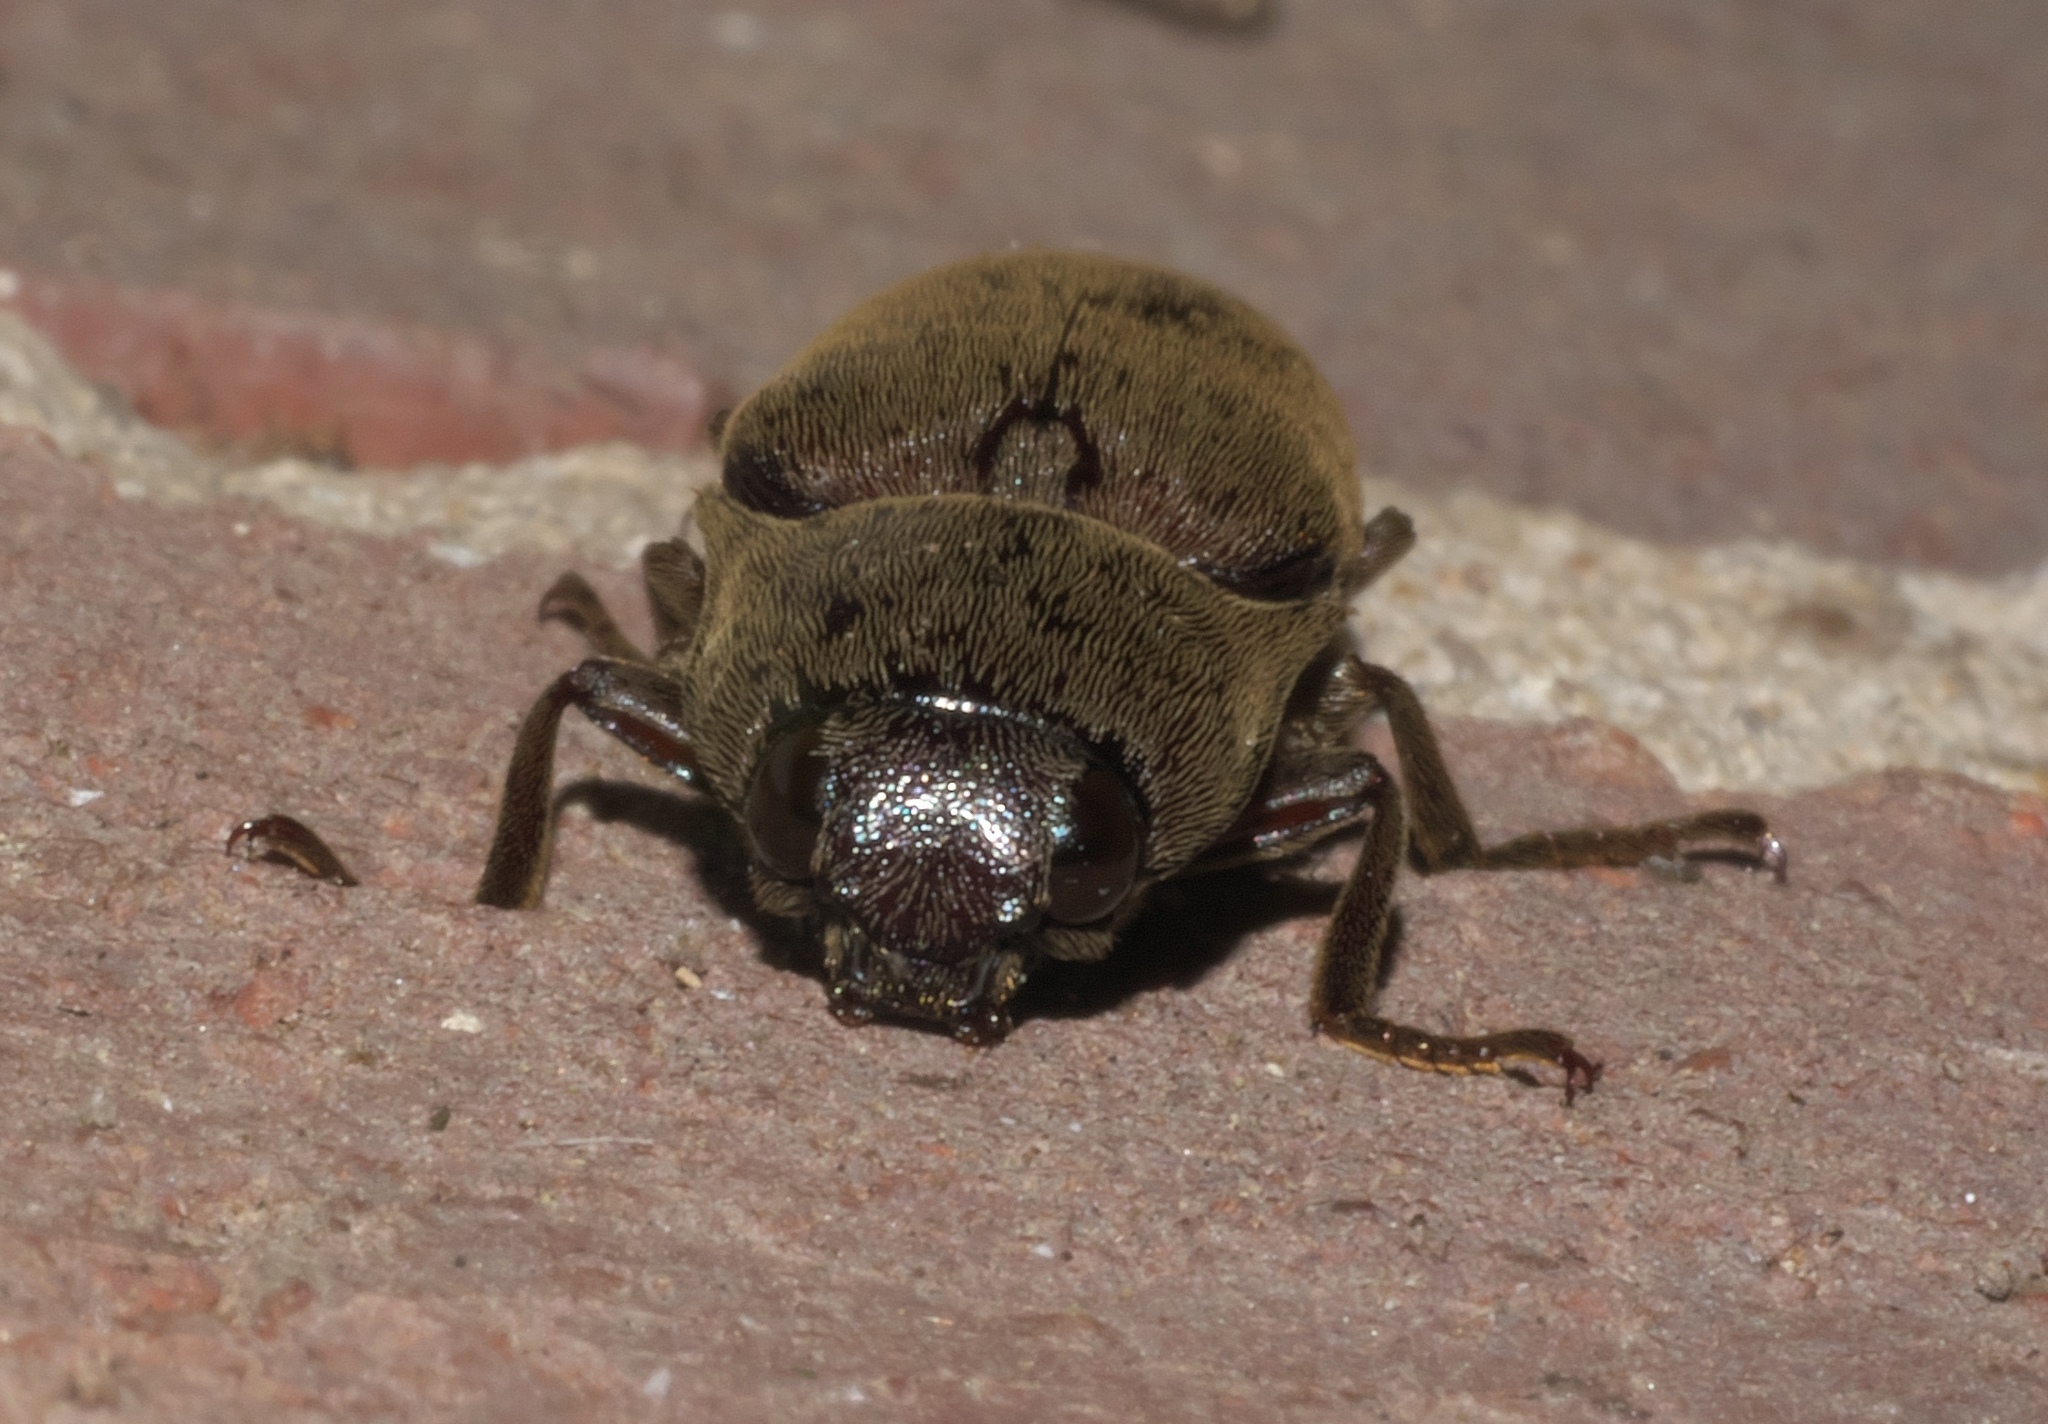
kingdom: Animalia
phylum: Arthropoda
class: Insecta
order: Coleoptera
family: Elateridae
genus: Orthostethus
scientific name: Orthostethus infuscatus
